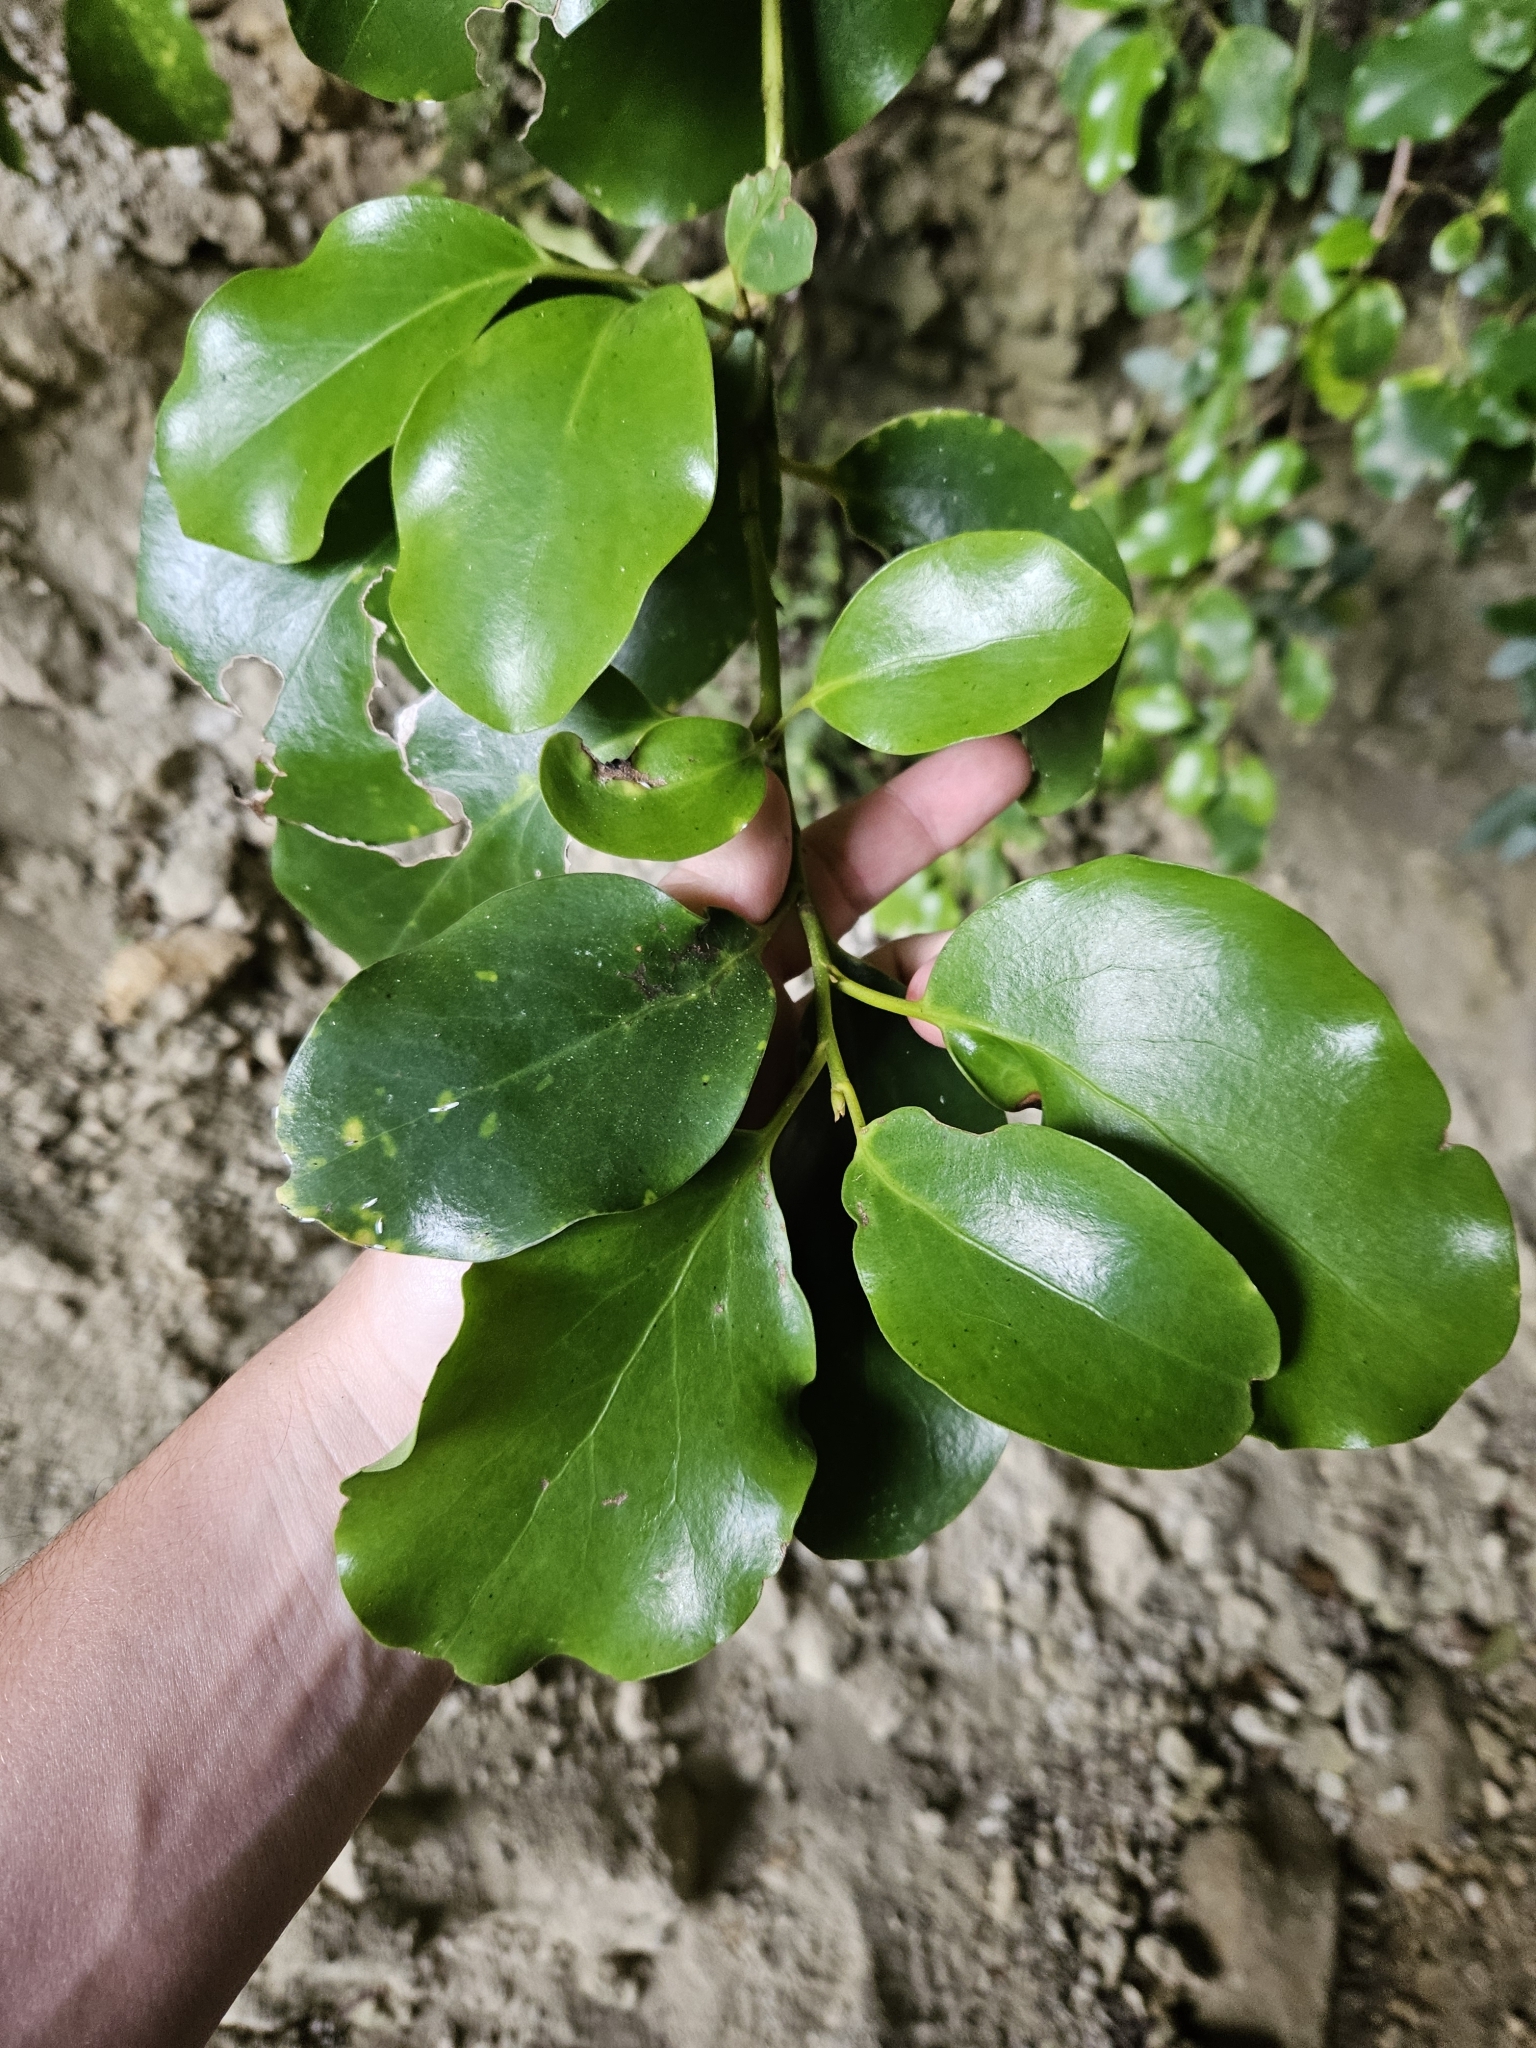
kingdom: Plantae
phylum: Tracheophyta
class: Magnoliopsida
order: Apiales
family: Griseliniaceae
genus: Griselinia
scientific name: Griselinia littoralis
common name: New zealand broadleaf
